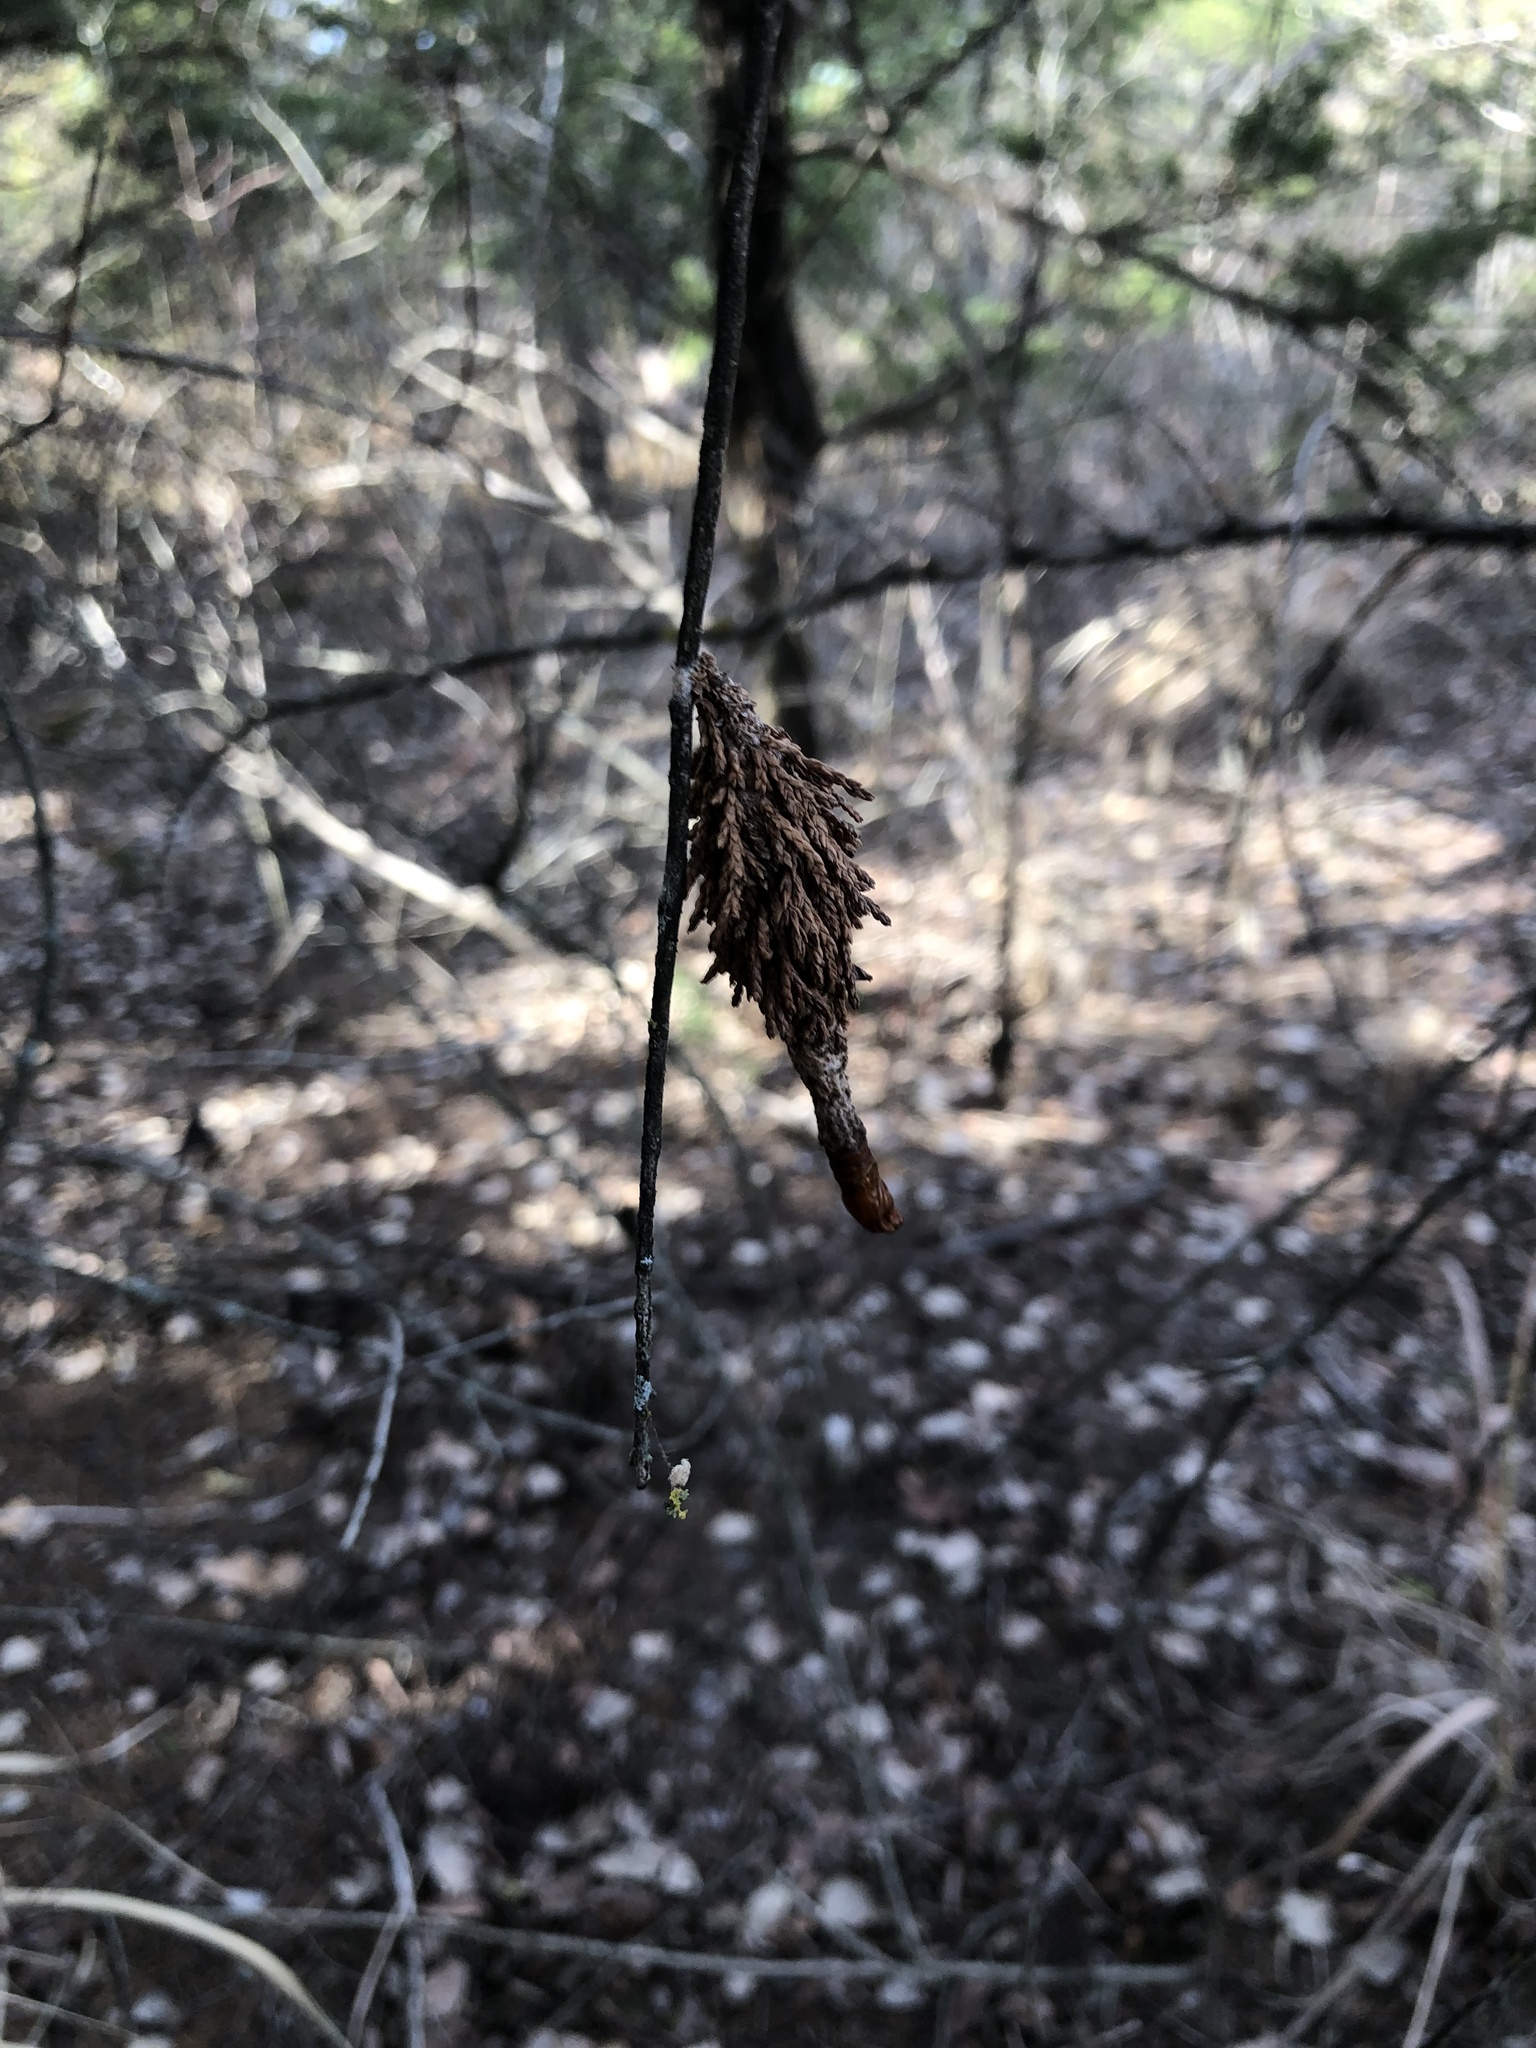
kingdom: Animalia
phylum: Arthropoda
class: Insecta
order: Lepidoptera
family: Psychidae
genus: Thyridopteryx
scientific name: Thyridopteryx ephemeraeformis
